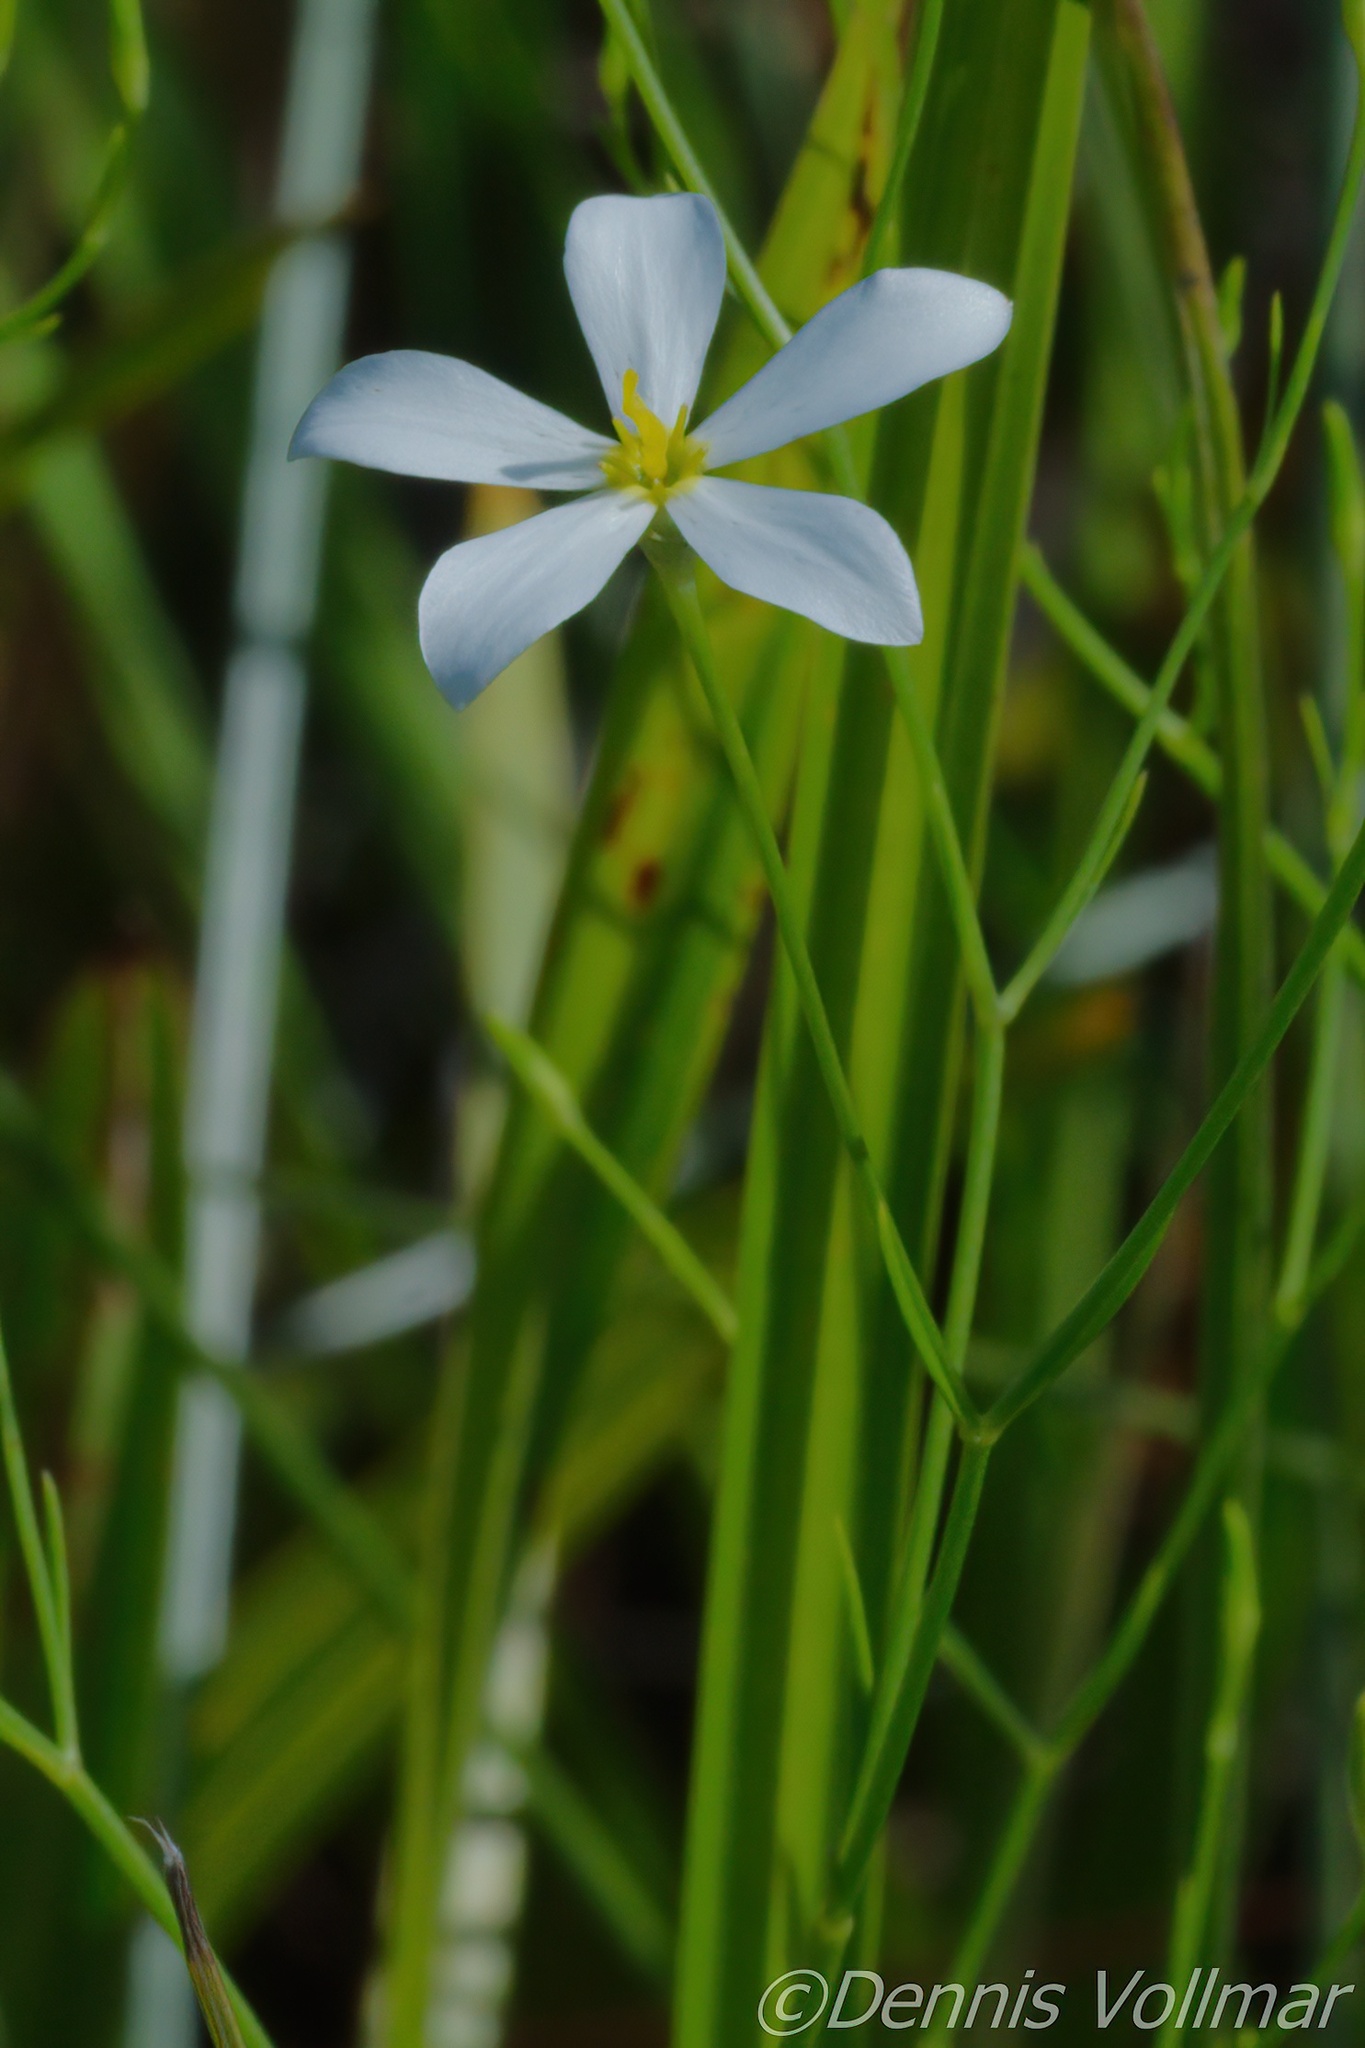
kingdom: Plantae
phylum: Tracheophyta
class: Magnoliopsida
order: Gentianales
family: Gentianaceae
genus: Sabatia
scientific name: Sabatia brevifolia
